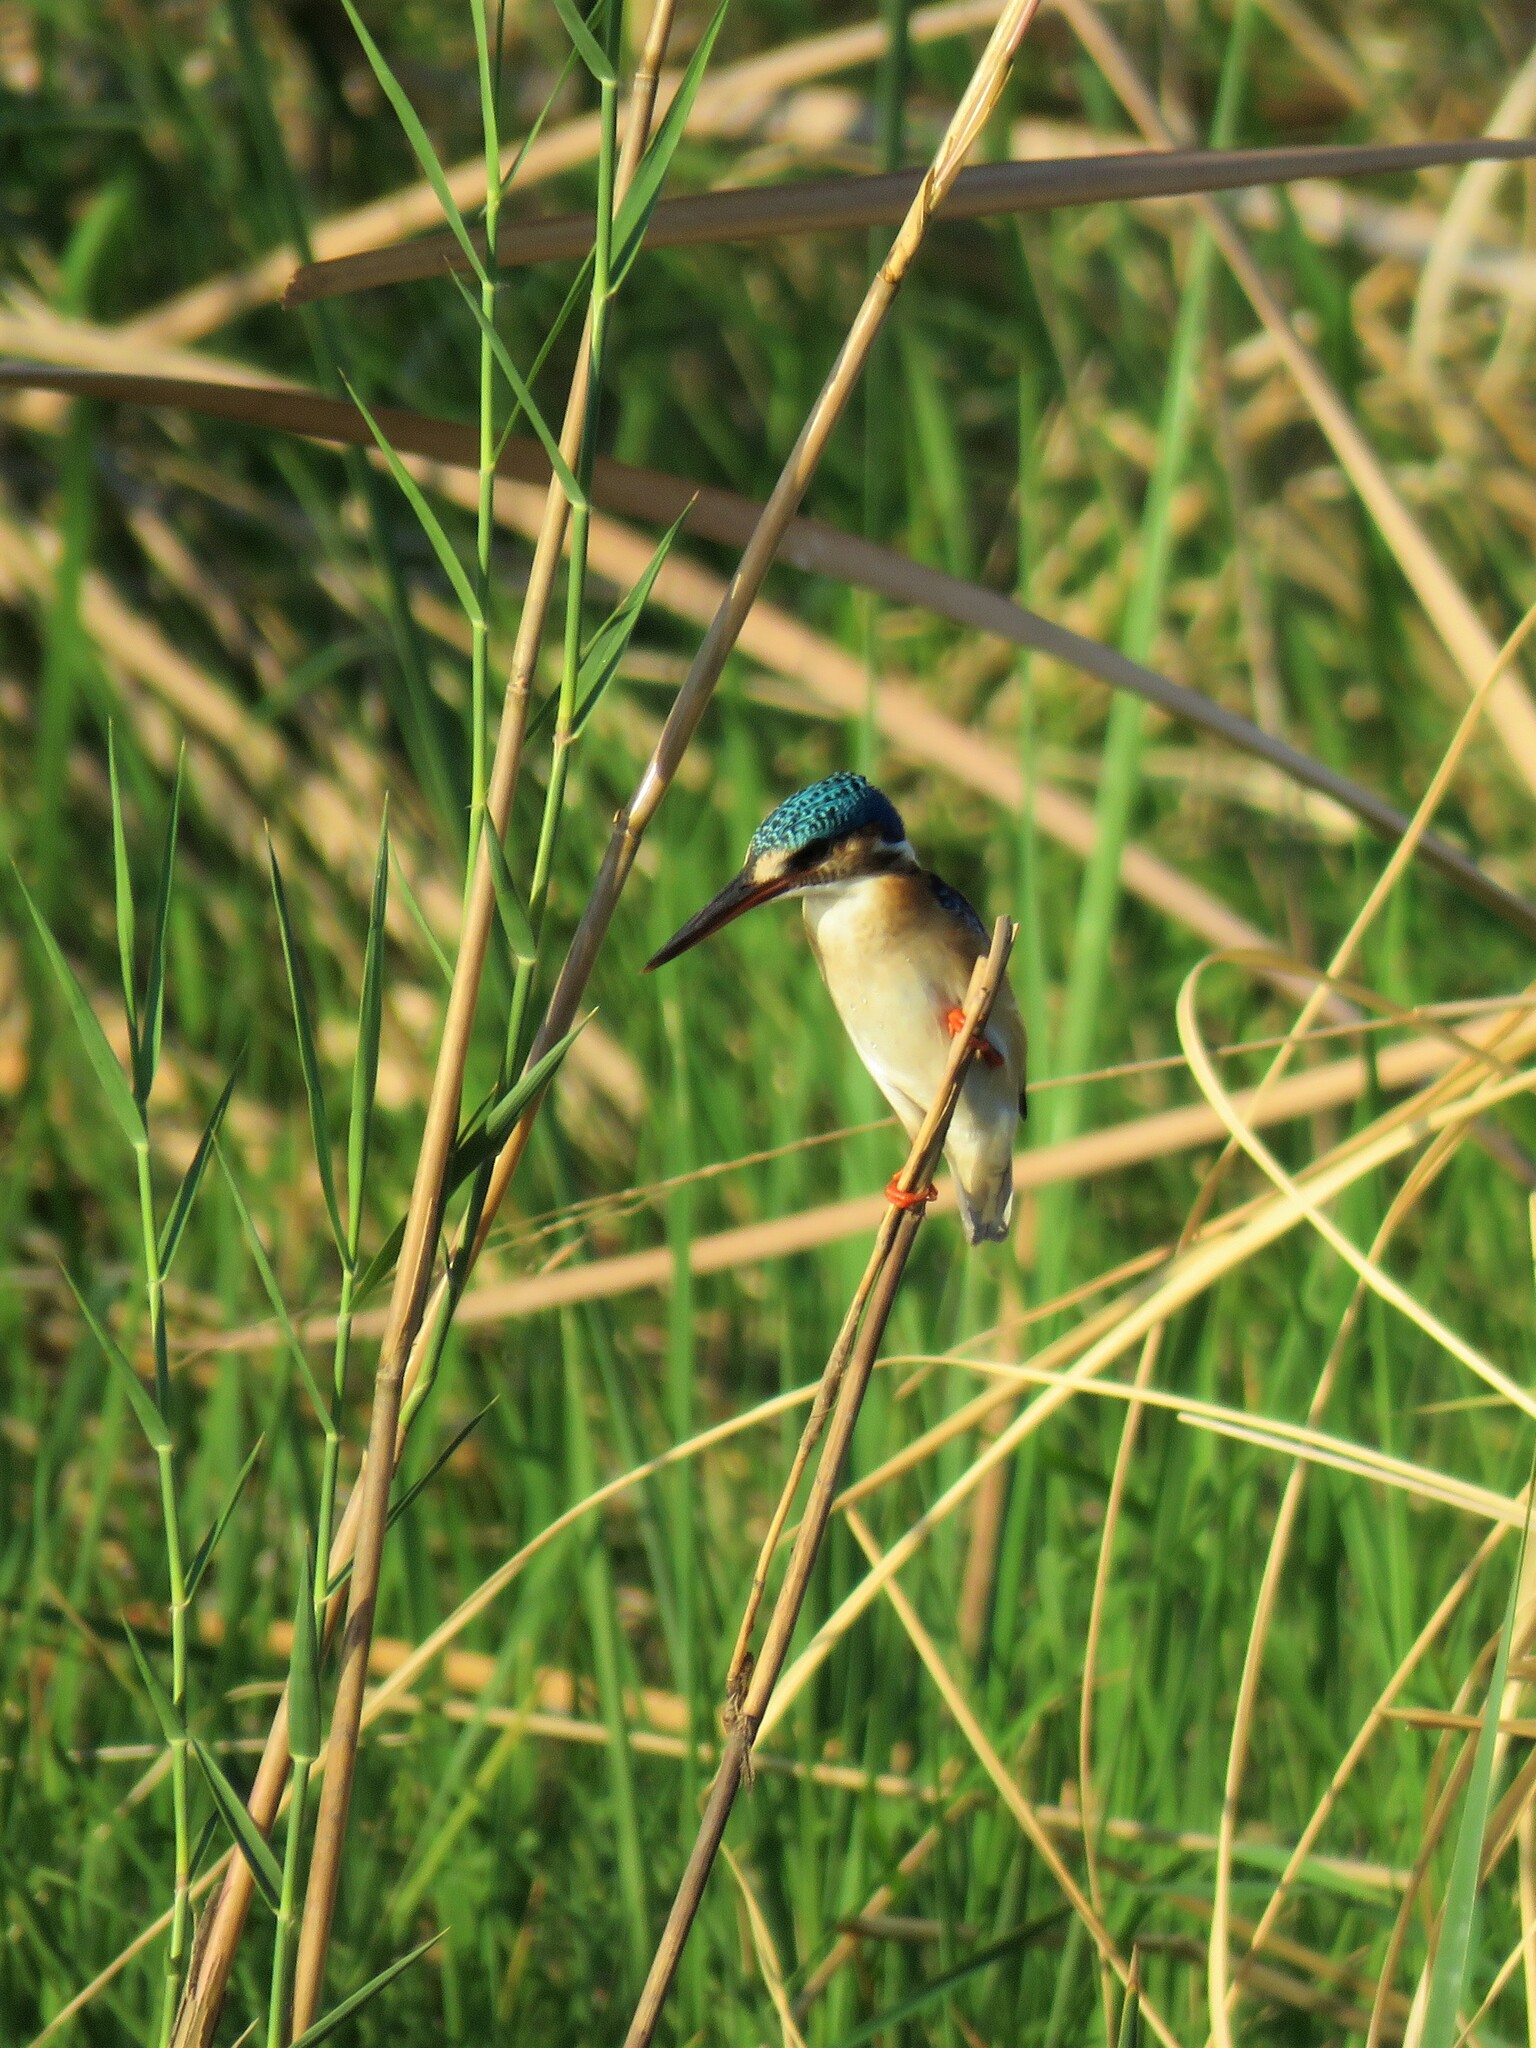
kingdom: Animalia
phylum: Chordata
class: Aves
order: Coraciiformes
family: Alcedinidae
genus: Corythornis
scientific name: Corythornis cristatus
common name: Malachite kingfisher
